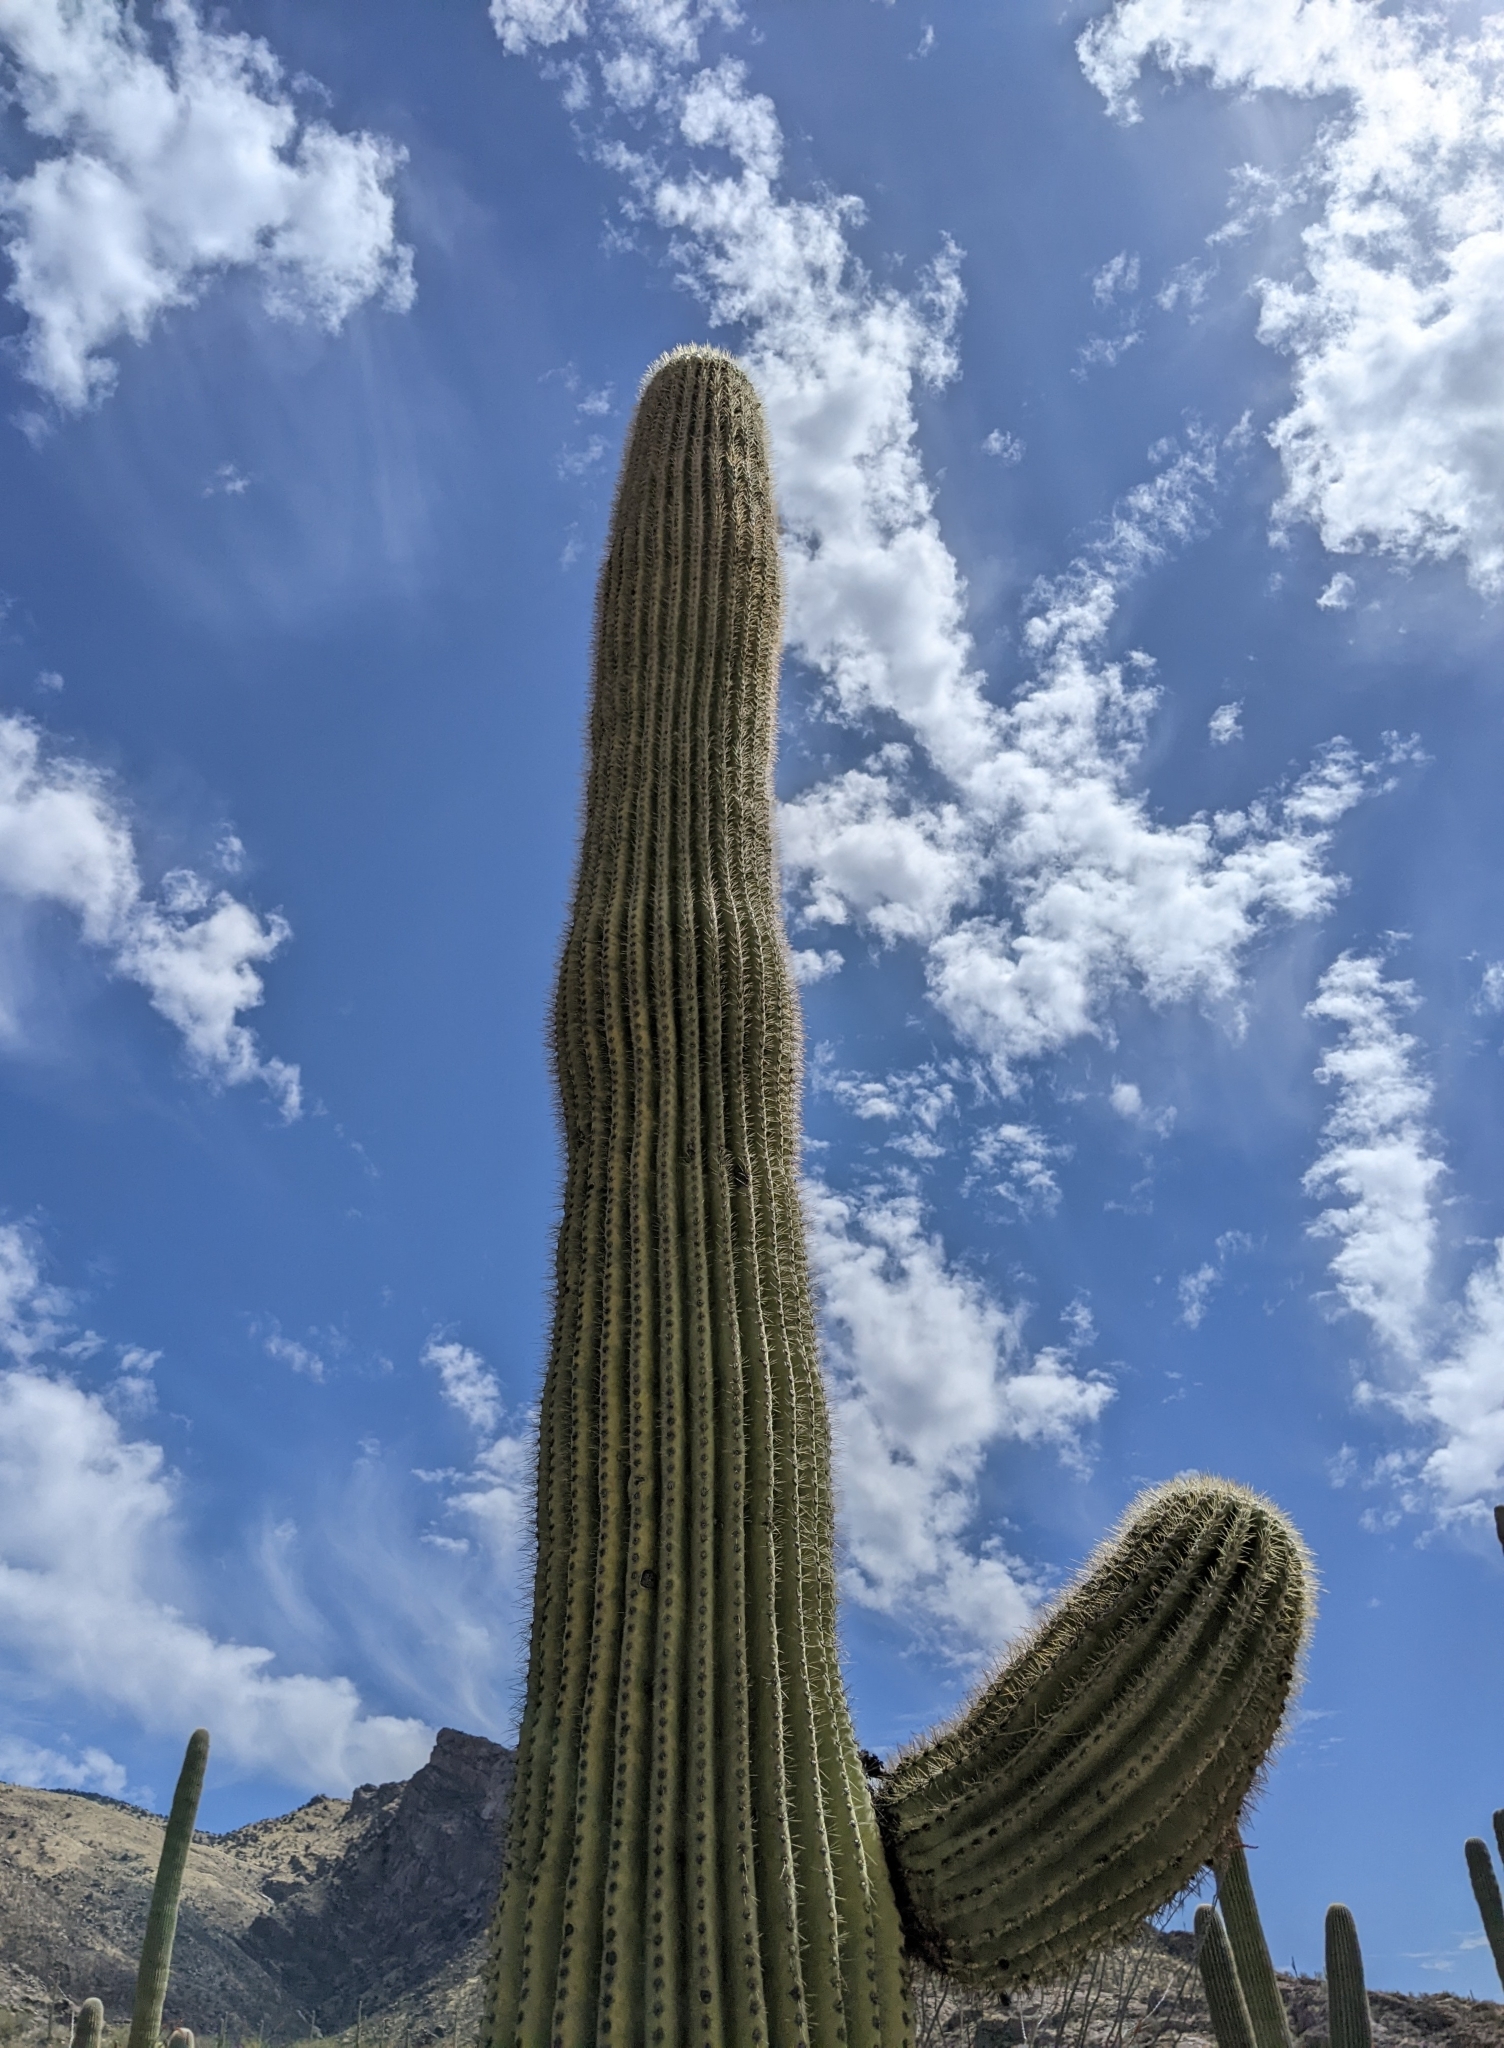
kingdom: Plantae
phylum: Tracheophyta
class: Magnoliopsida
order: Caryophyllales
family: Cactaceae
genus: Carnegiea
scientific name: Carnegiea gigantea
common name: Saguaro
